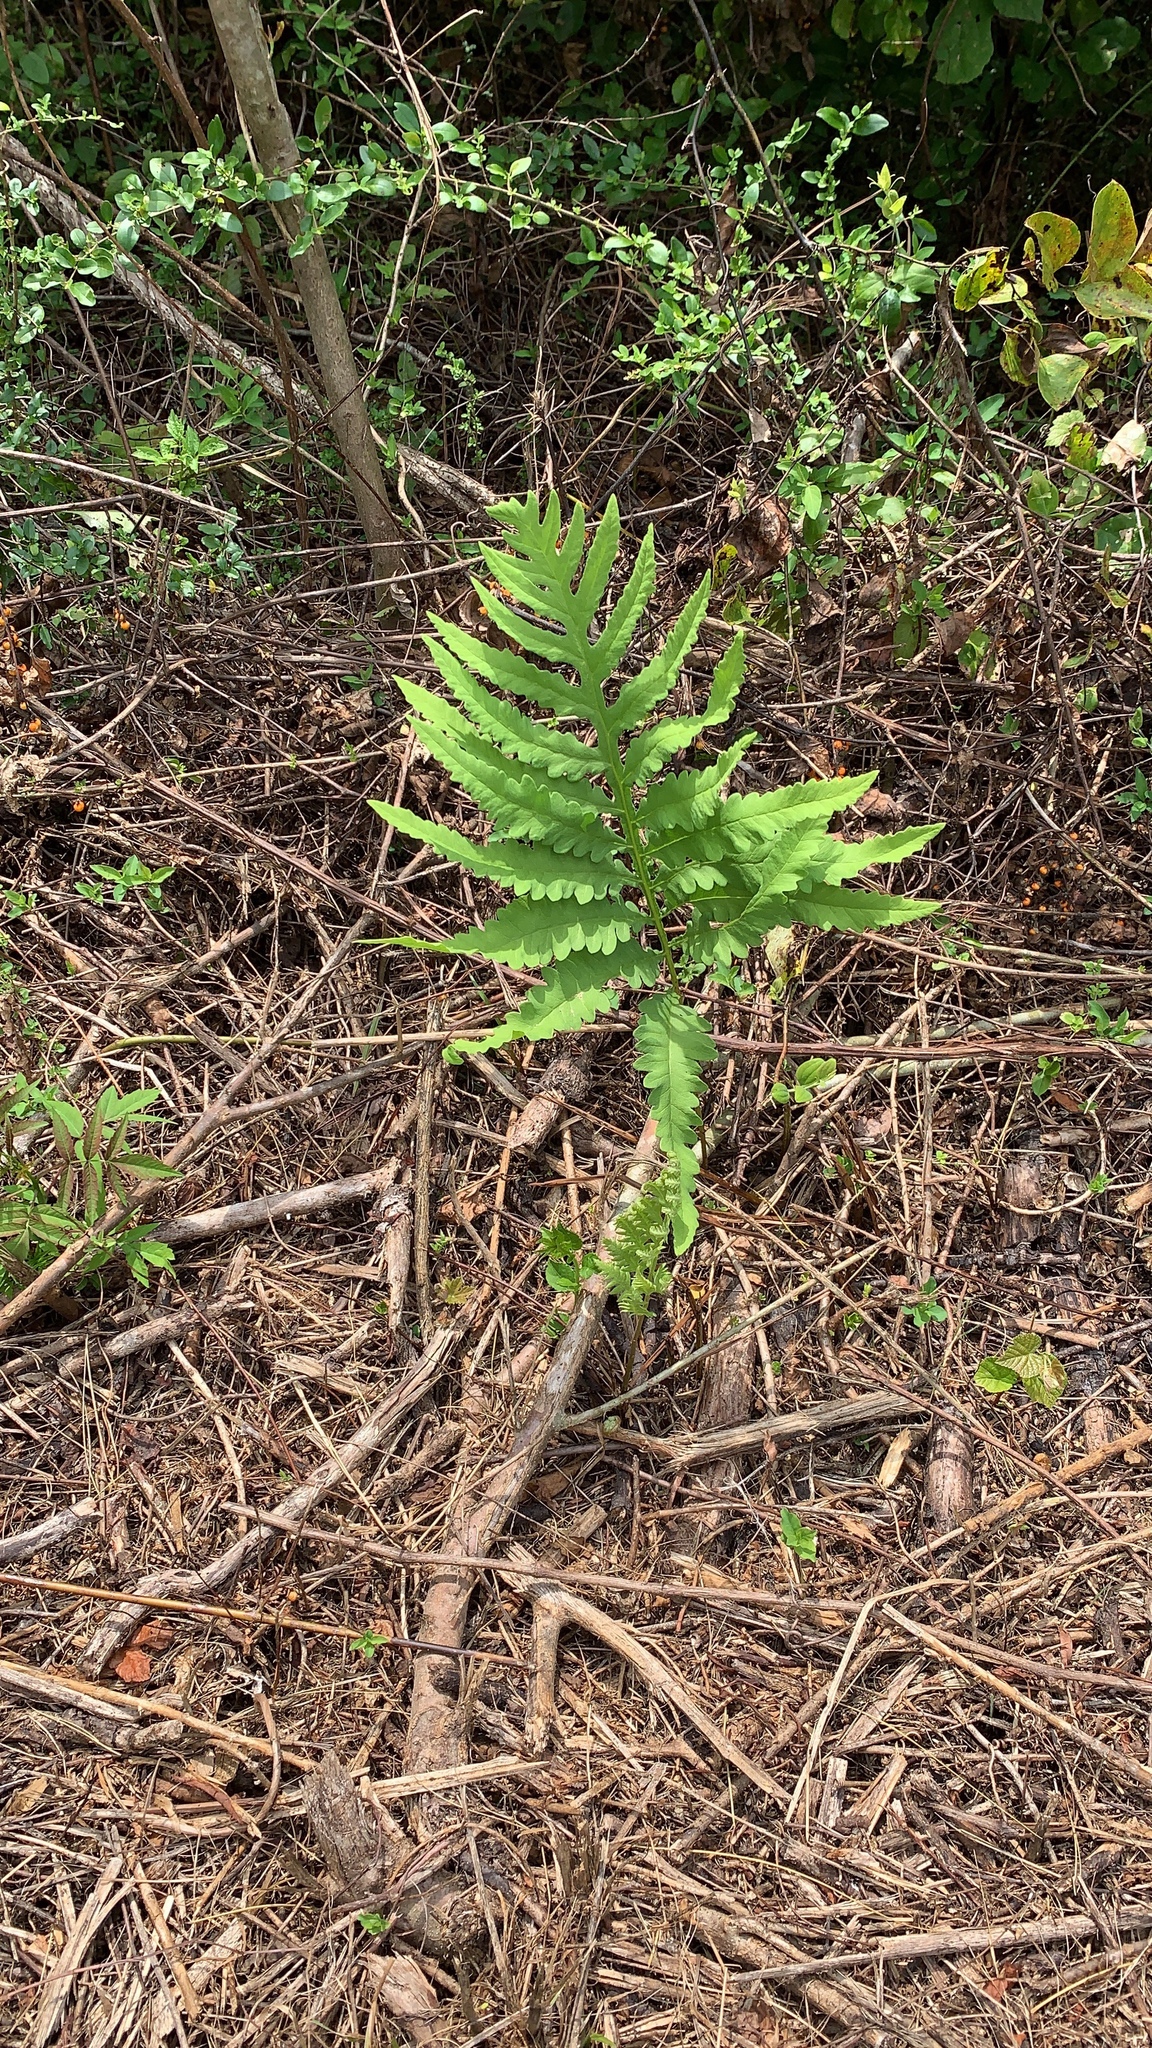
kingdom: Plantae
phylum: Tracheophyta
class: Polypodiopsida
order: Polypodiales
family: Onocleaceae
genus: Onoclea
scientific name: Onoclea sensibilis
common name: Sensitive fern
